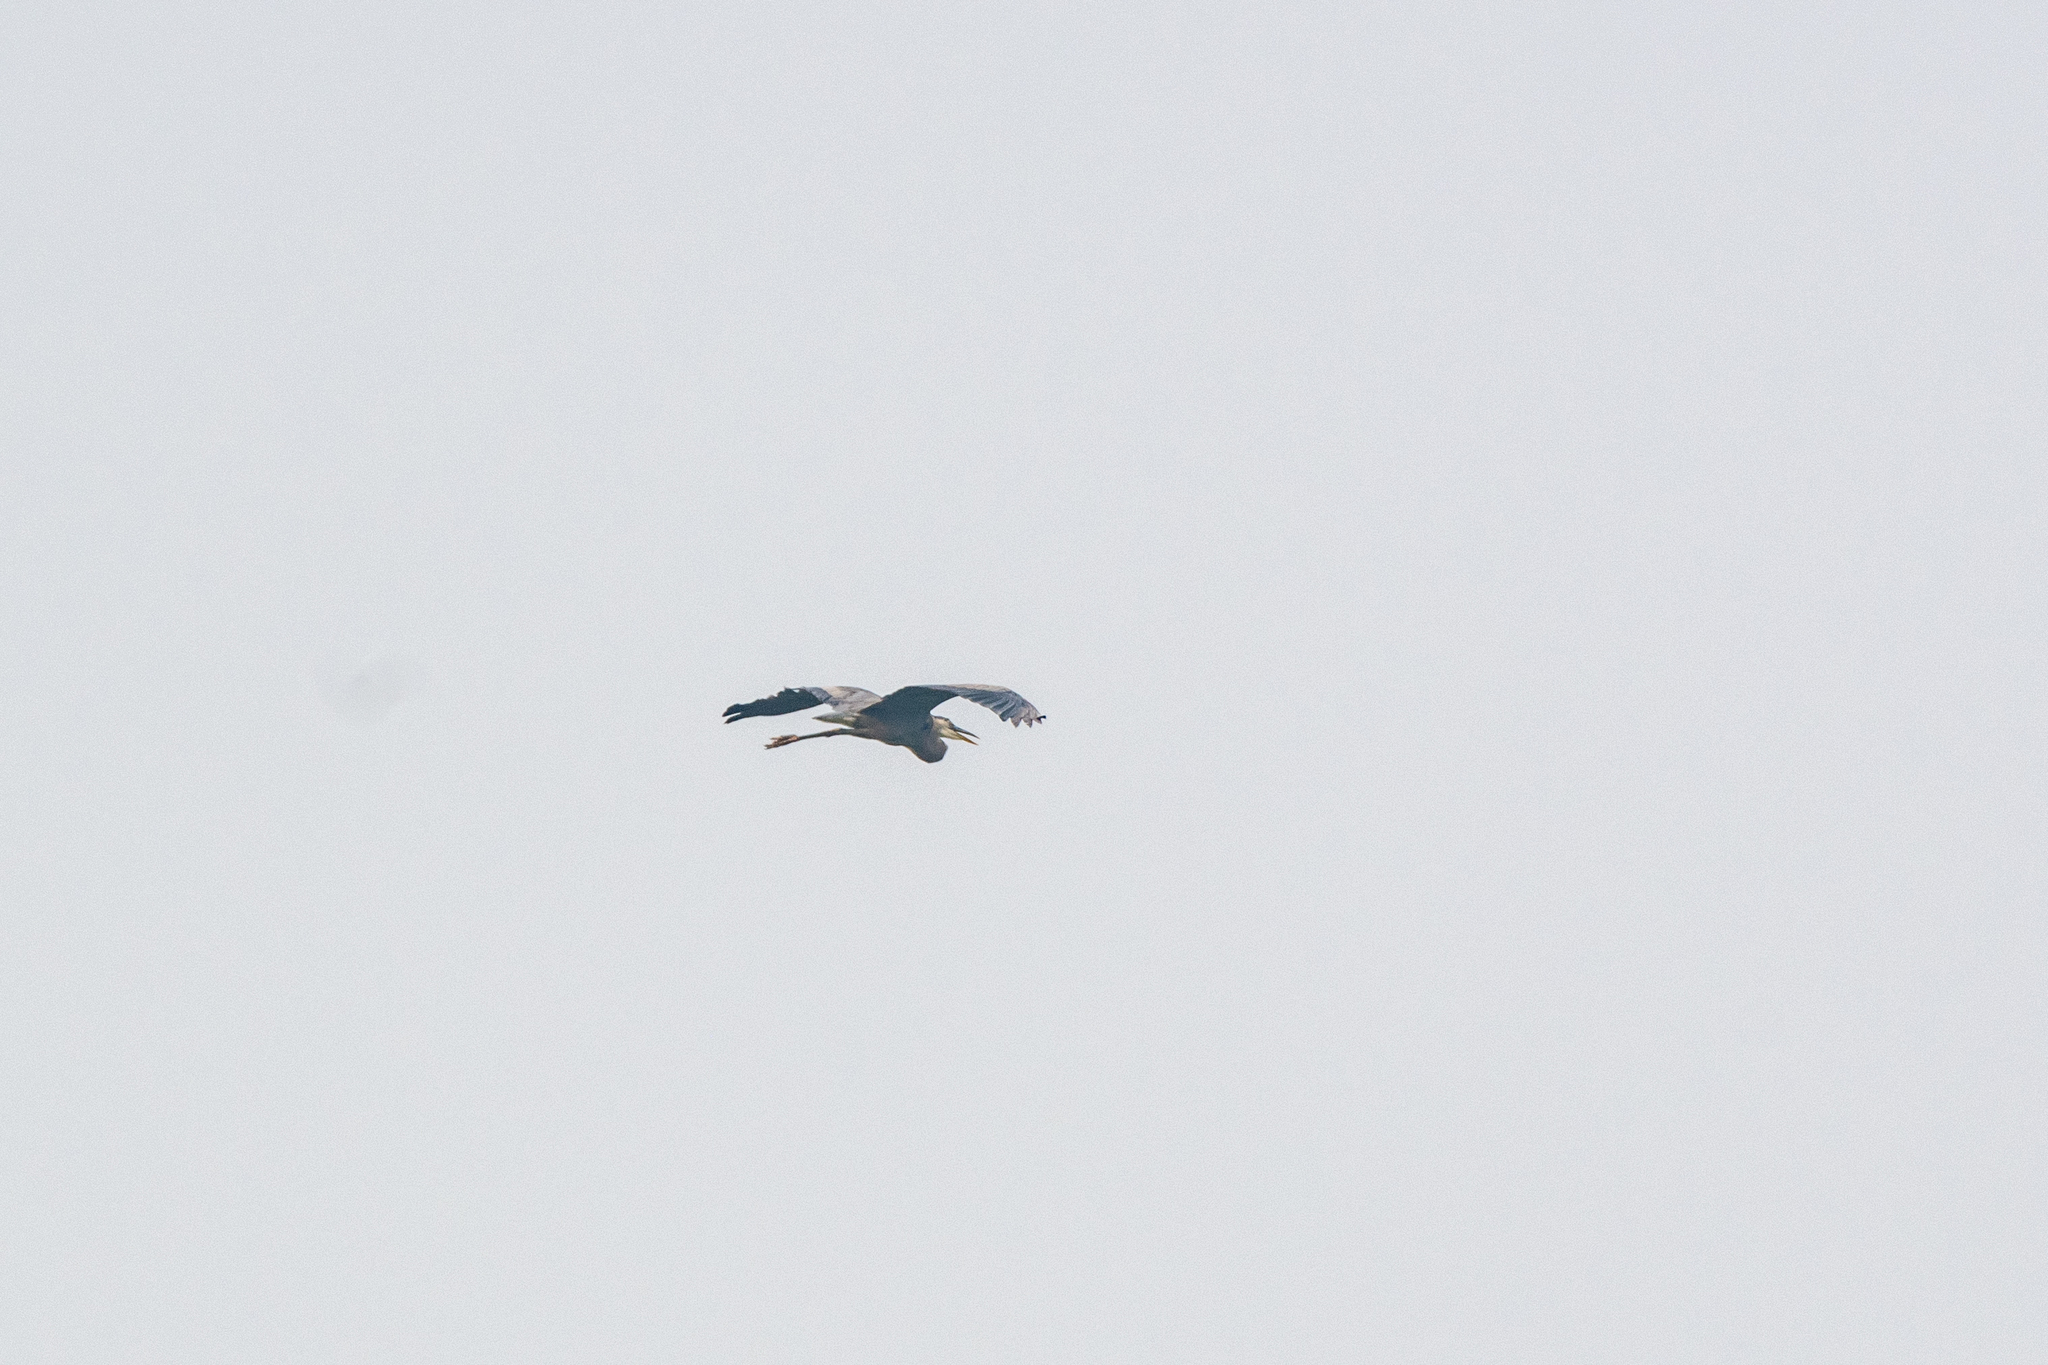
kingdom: Animalia
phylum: Chordata
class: Aves
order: Pelecaniformes
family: Ardeidae
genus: Ardea
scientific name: Ardea herodias
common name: Great blue heron
